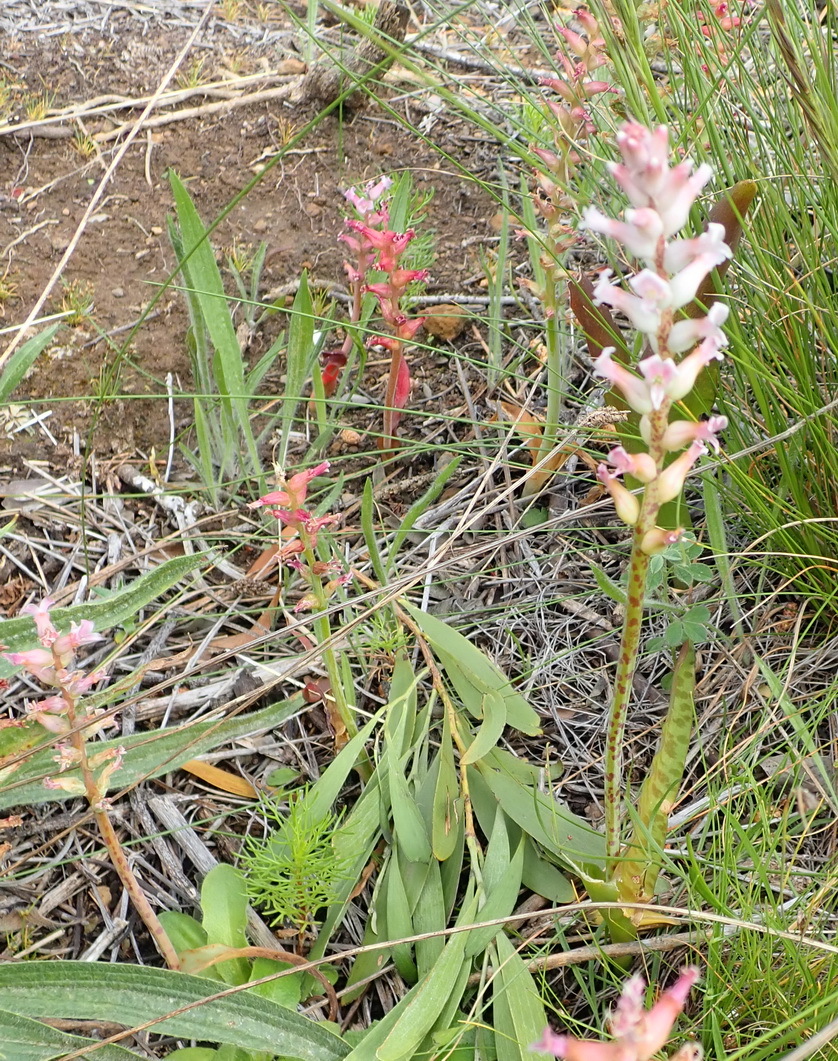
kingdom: Plantae
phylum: Tracheophyta
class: Liliopsida
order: Asparagales
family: Asparagaceae
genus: Lachenalia
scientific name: Lachenalia fistulosa
